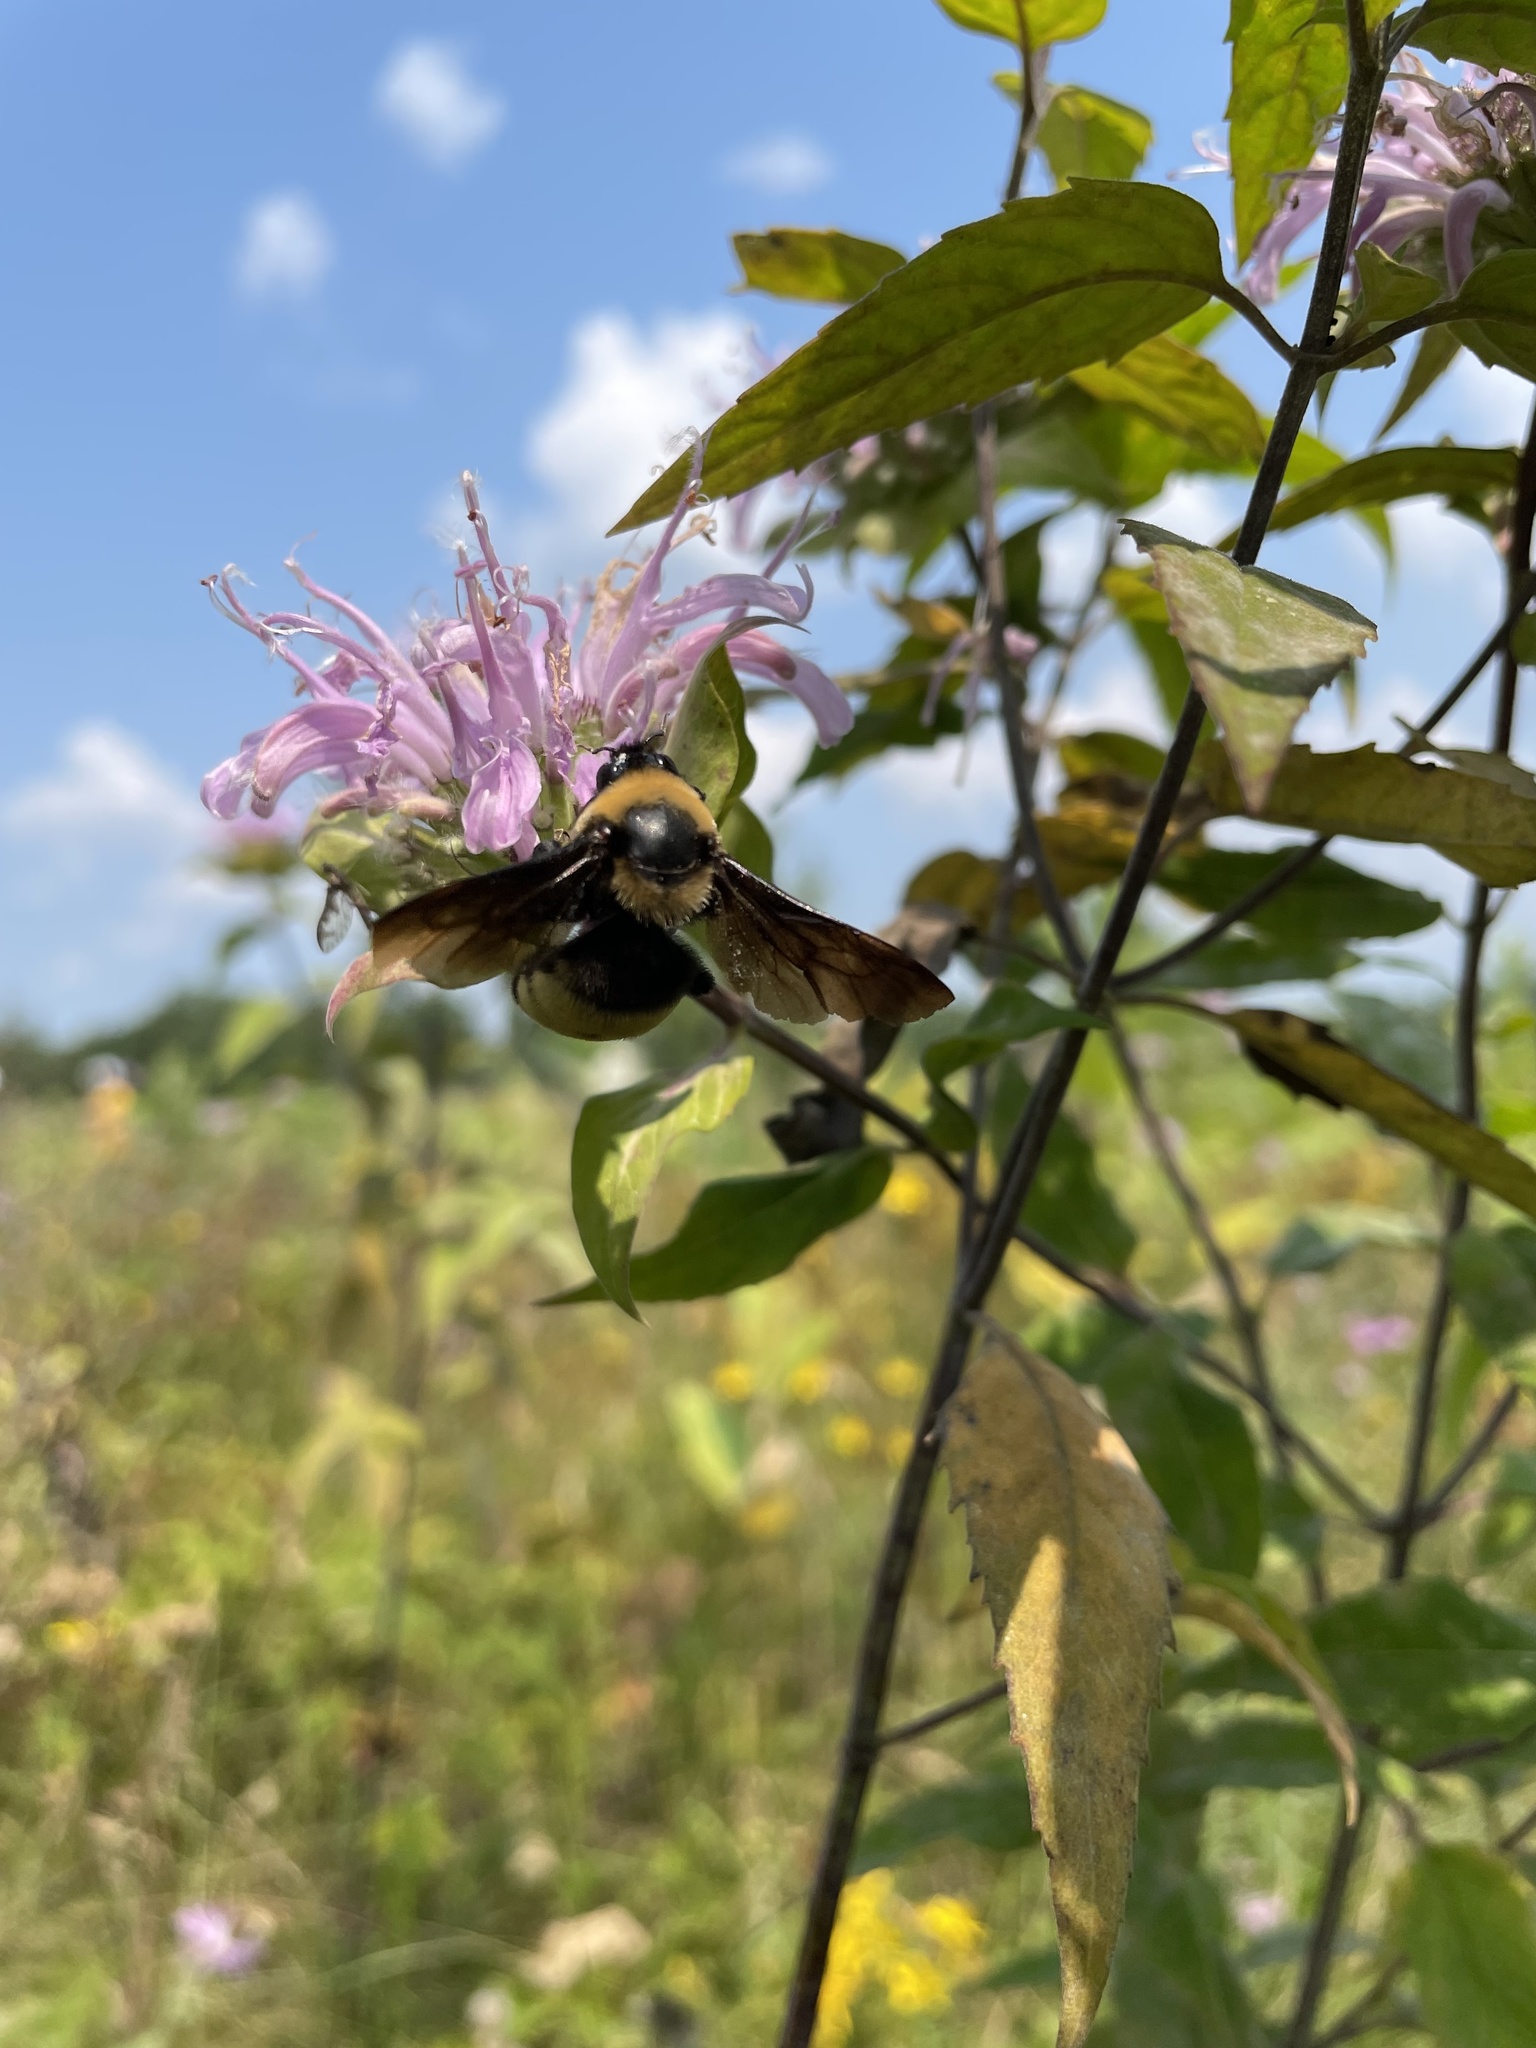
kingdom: Animalia
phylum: Arthropoda
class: Insecta
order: Hymenoptera
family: Apidae
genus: Bombus
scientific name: Bombus auricomus
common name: Black and gold bumble bee
